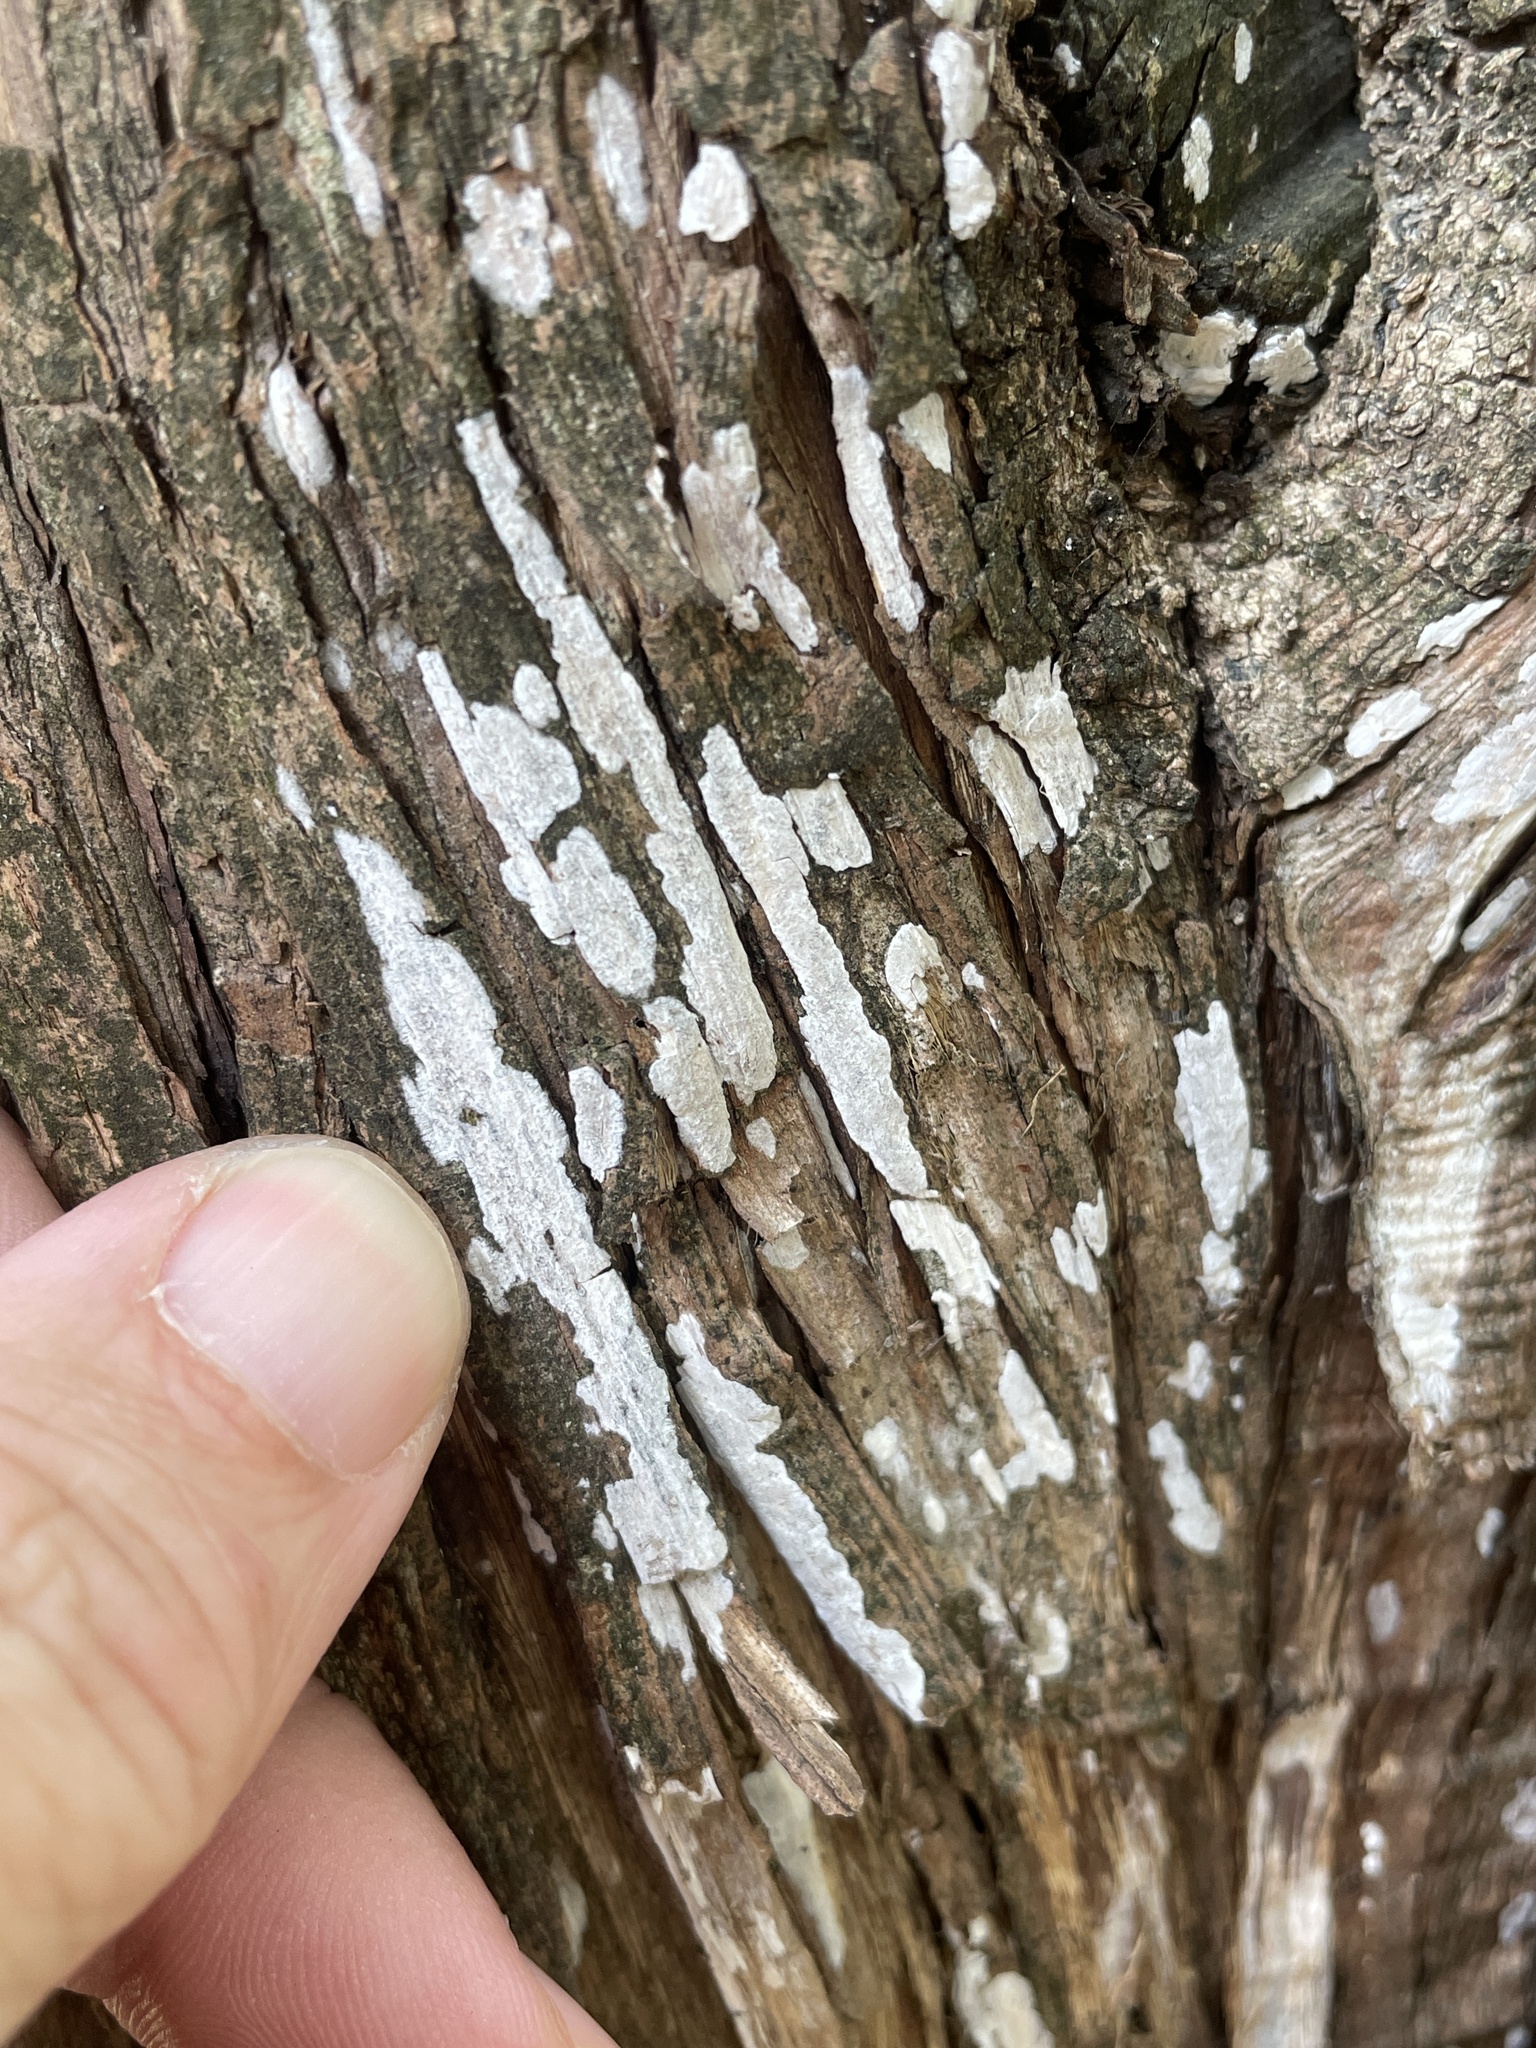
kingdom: Fungi
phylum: Basidiomycota
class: Agaricomycetes
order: Agaricales
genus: Dendrothele
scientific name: Dendrothele nivosa
